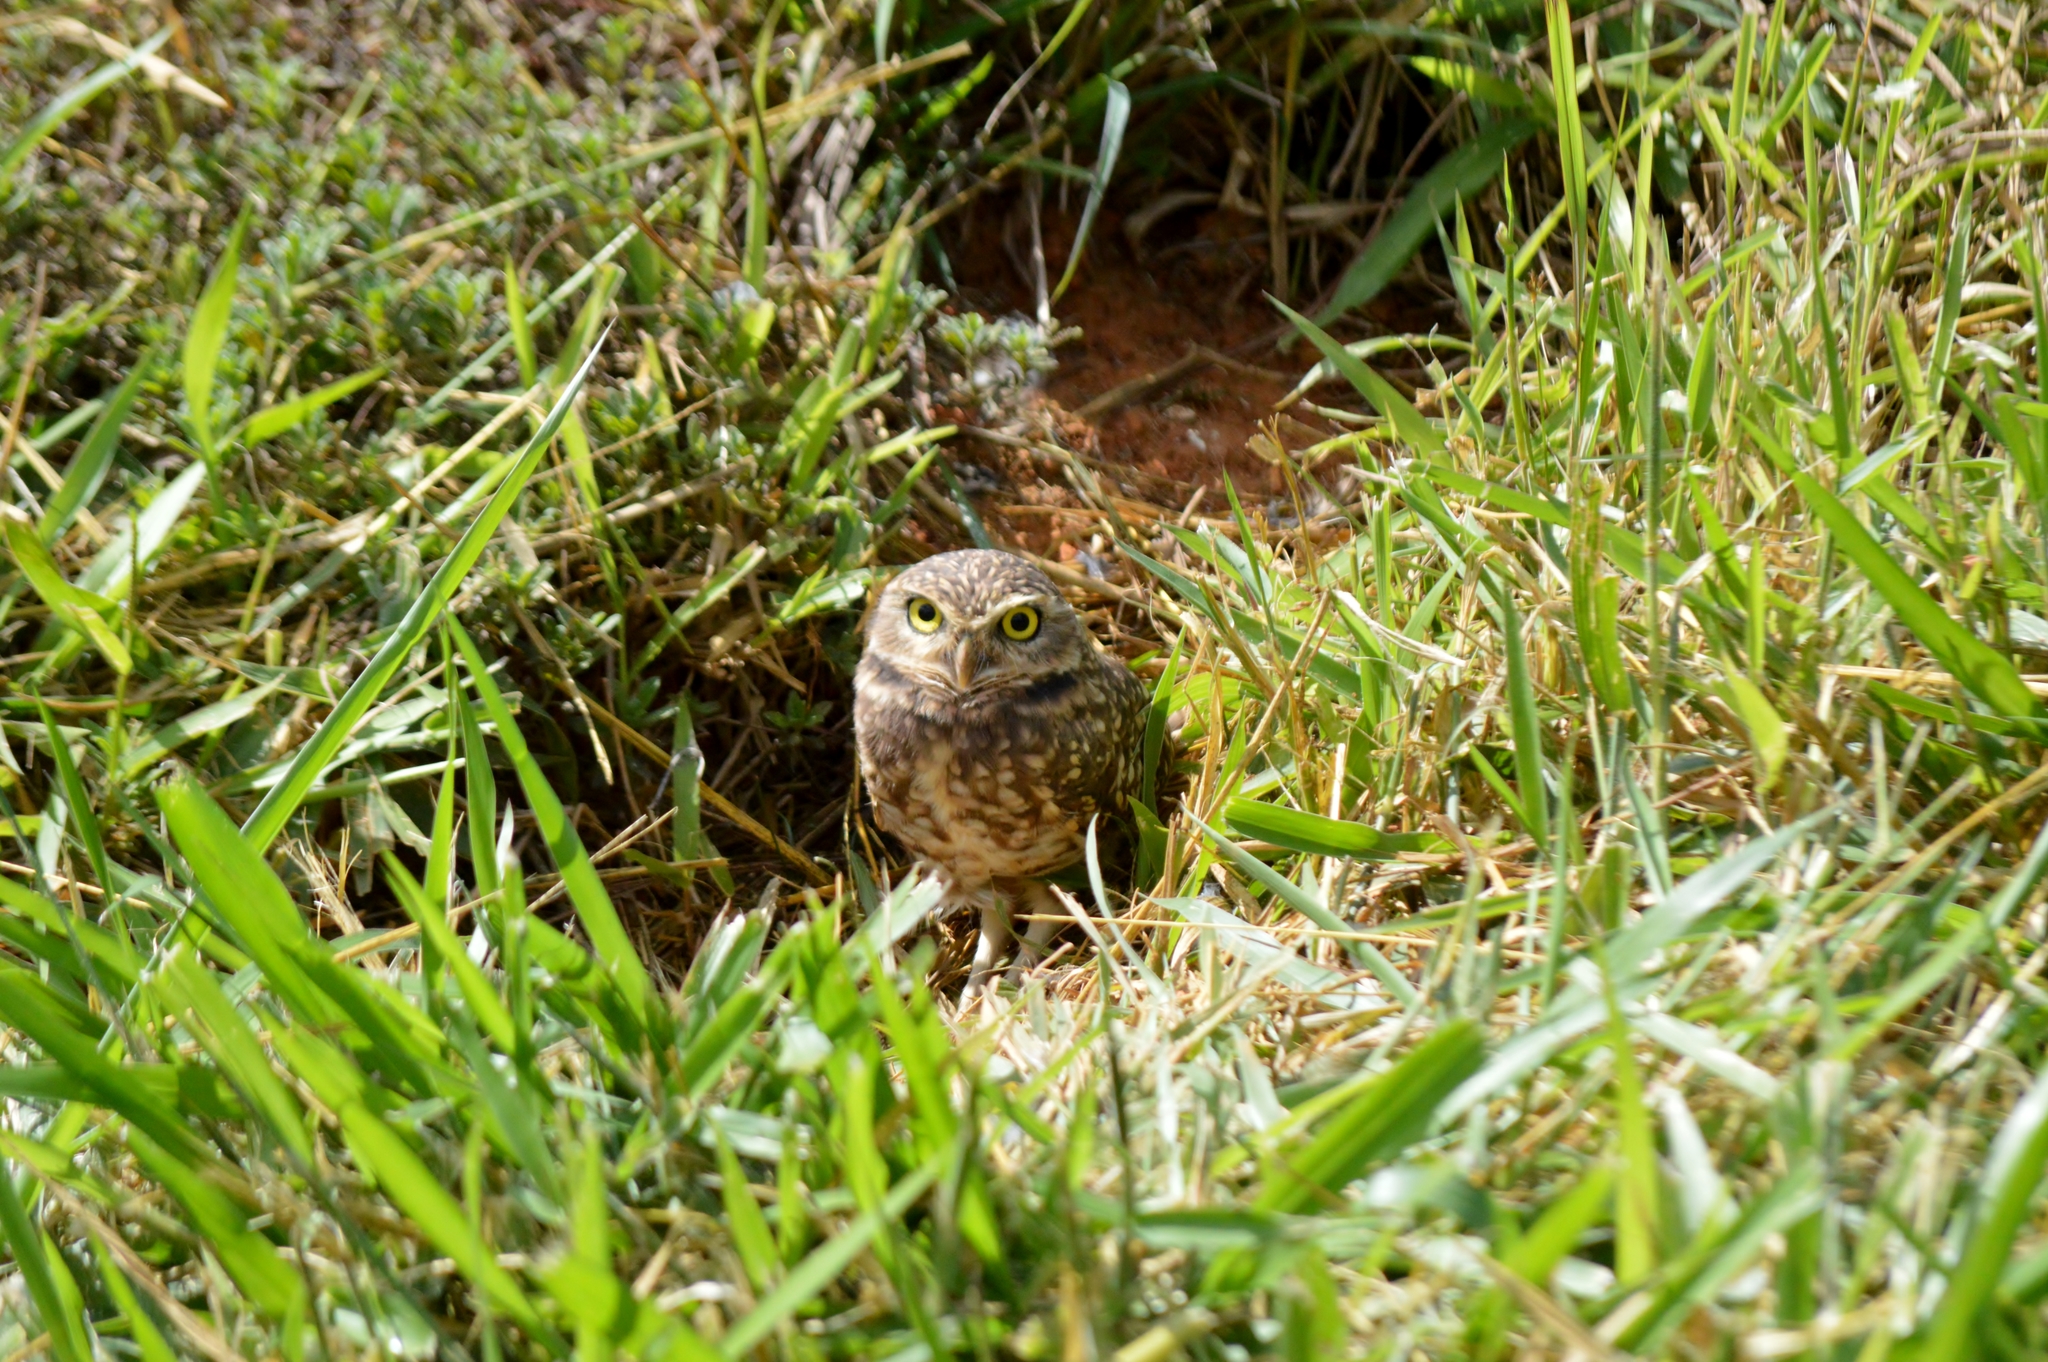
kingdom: Animalia
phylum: Chordata
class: Aves
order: Strigiformes
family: Strigidae
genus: Athene
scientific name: Athene cunicularia
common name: Burrowing owl
